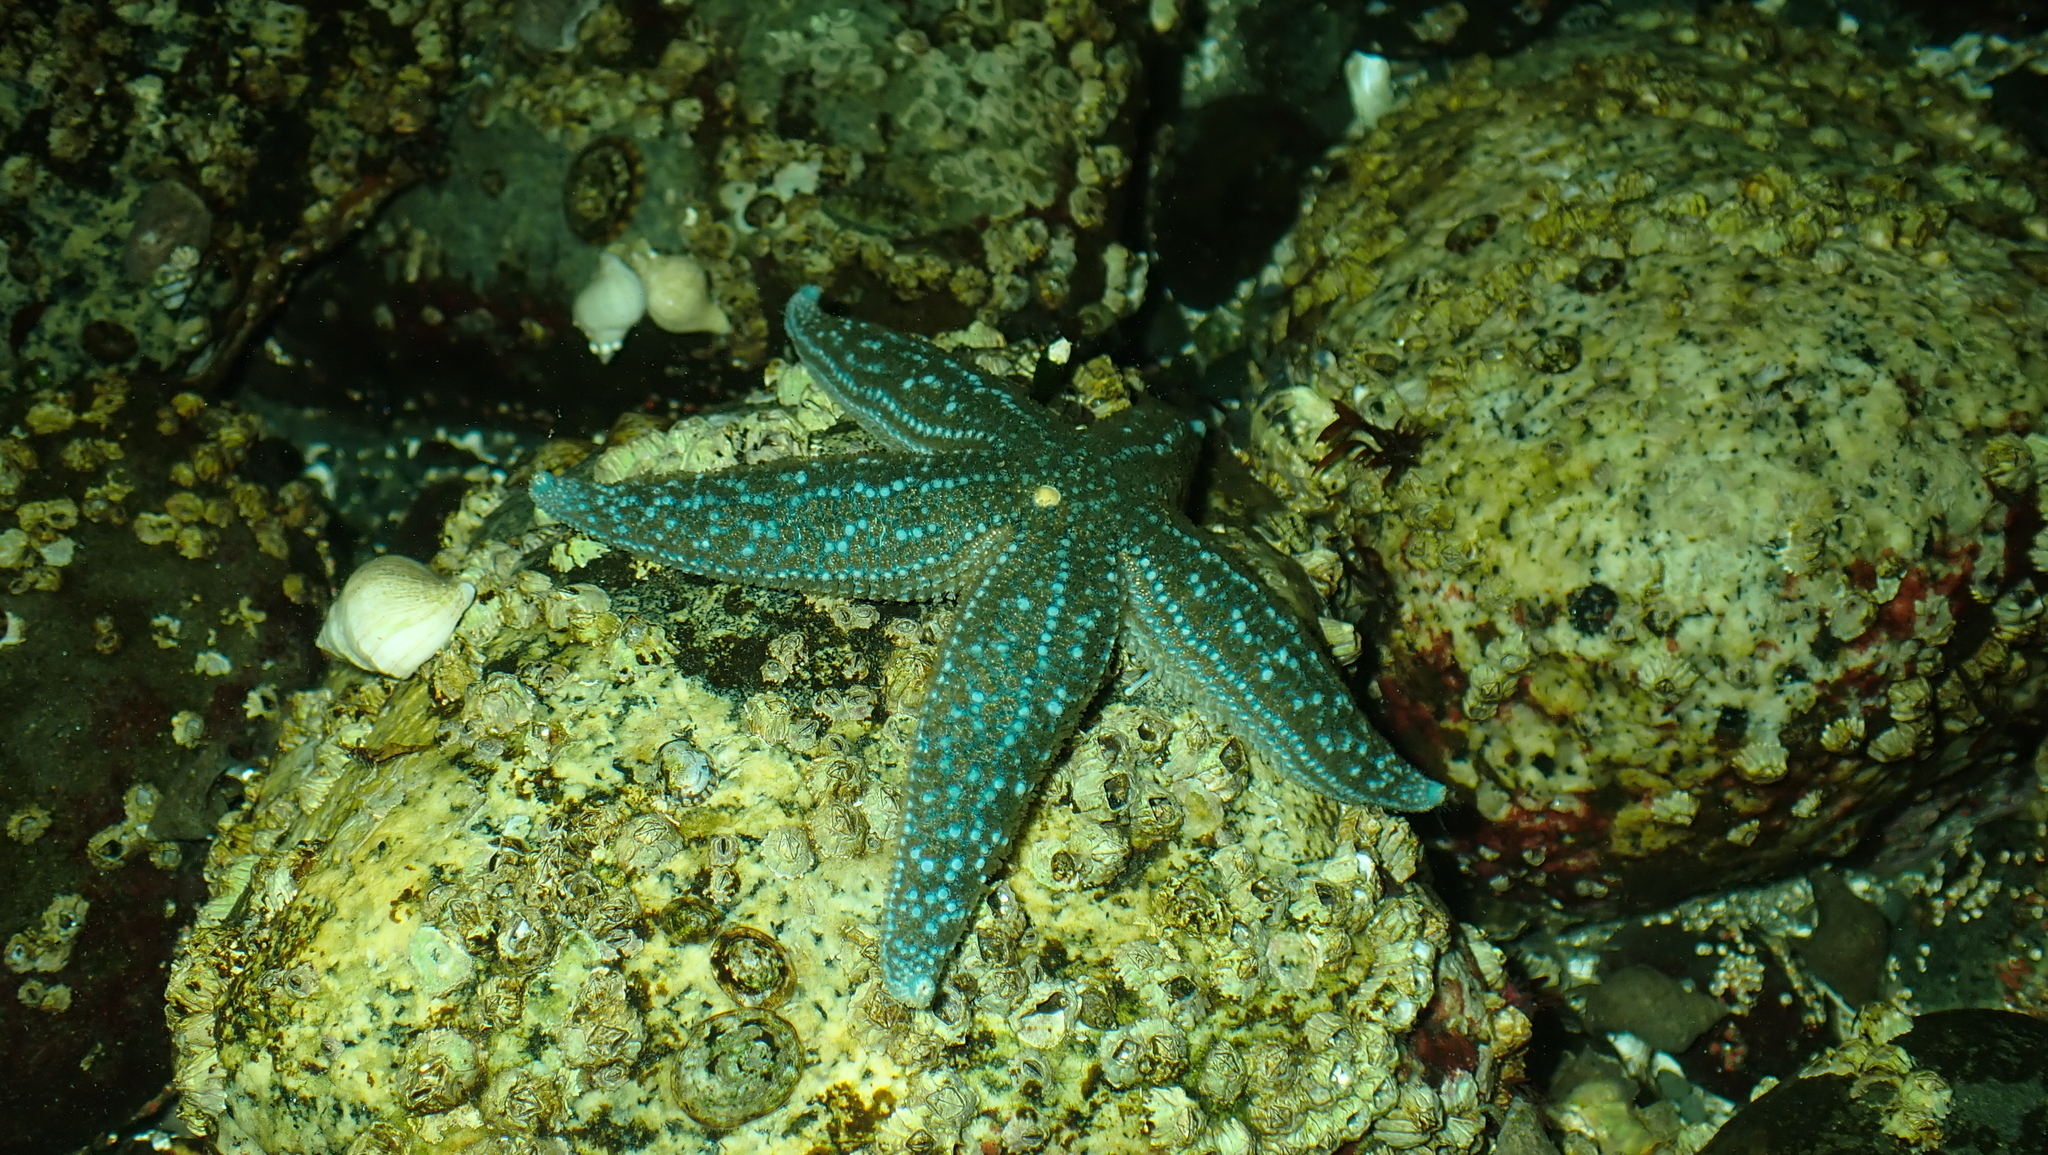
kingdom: Animalia
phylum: Echinodermata
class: Asteroidea
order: Forcipulatida
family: Asteriidae
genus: Evasterias
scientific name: Evasterias troschelii
